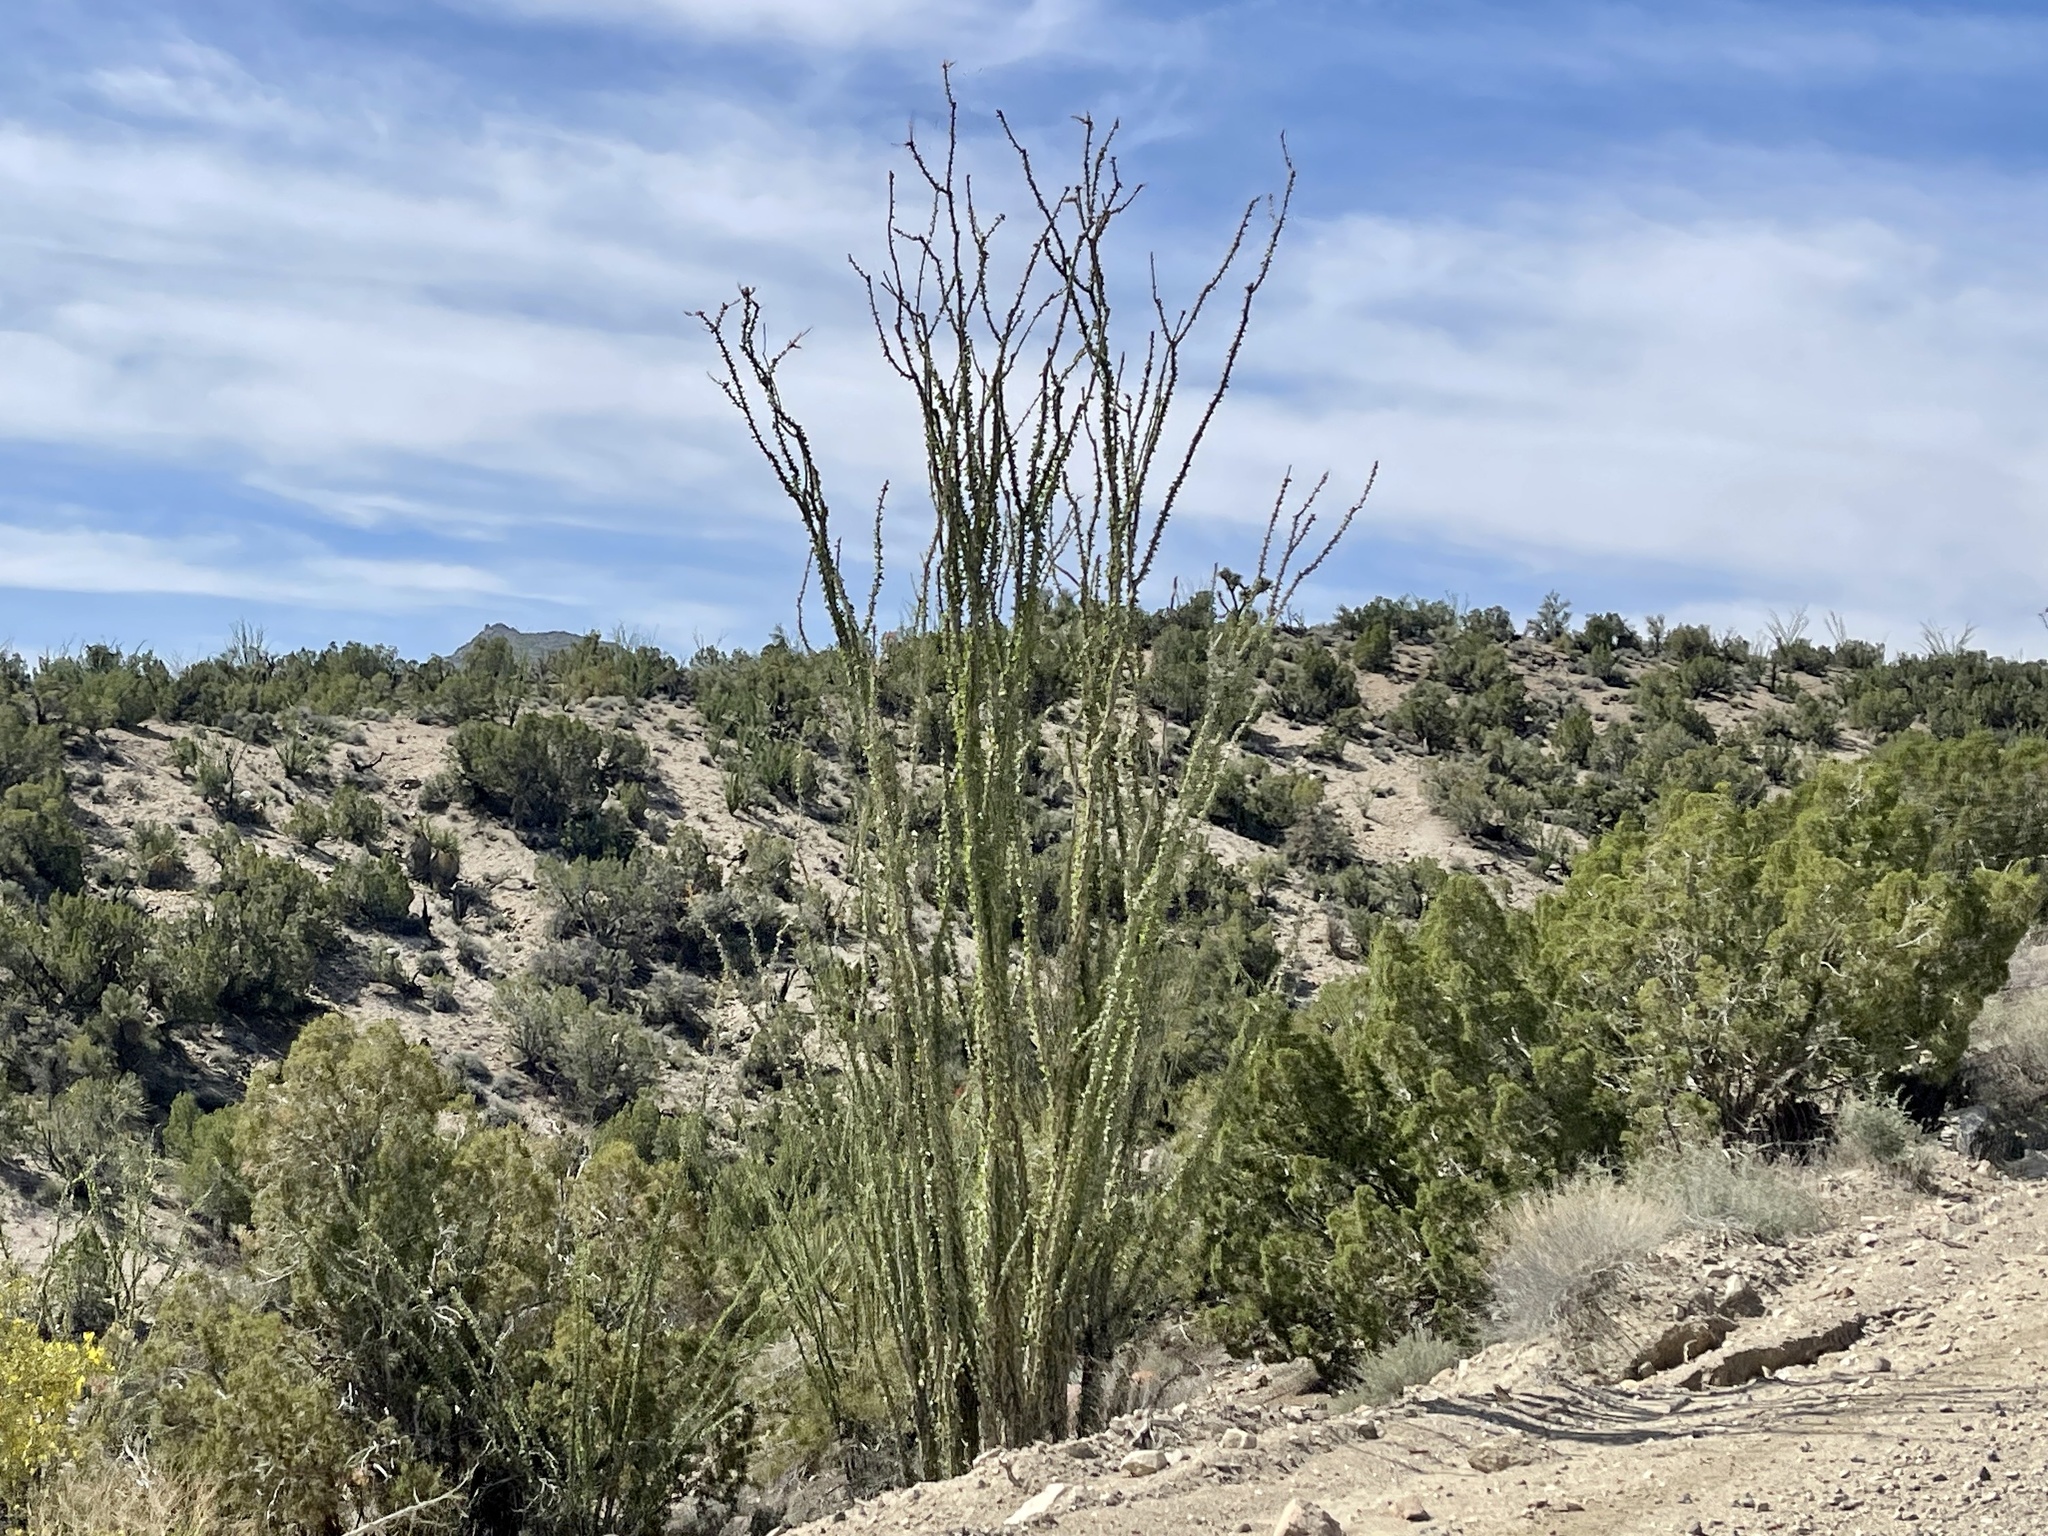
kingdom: Plantae
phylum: Tracheophyta
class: Magnoliopsida
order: Ericales
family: Fouquieriaceae
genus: Fouquieria
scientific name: Fouquieria splendens
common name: Vine-cactus
